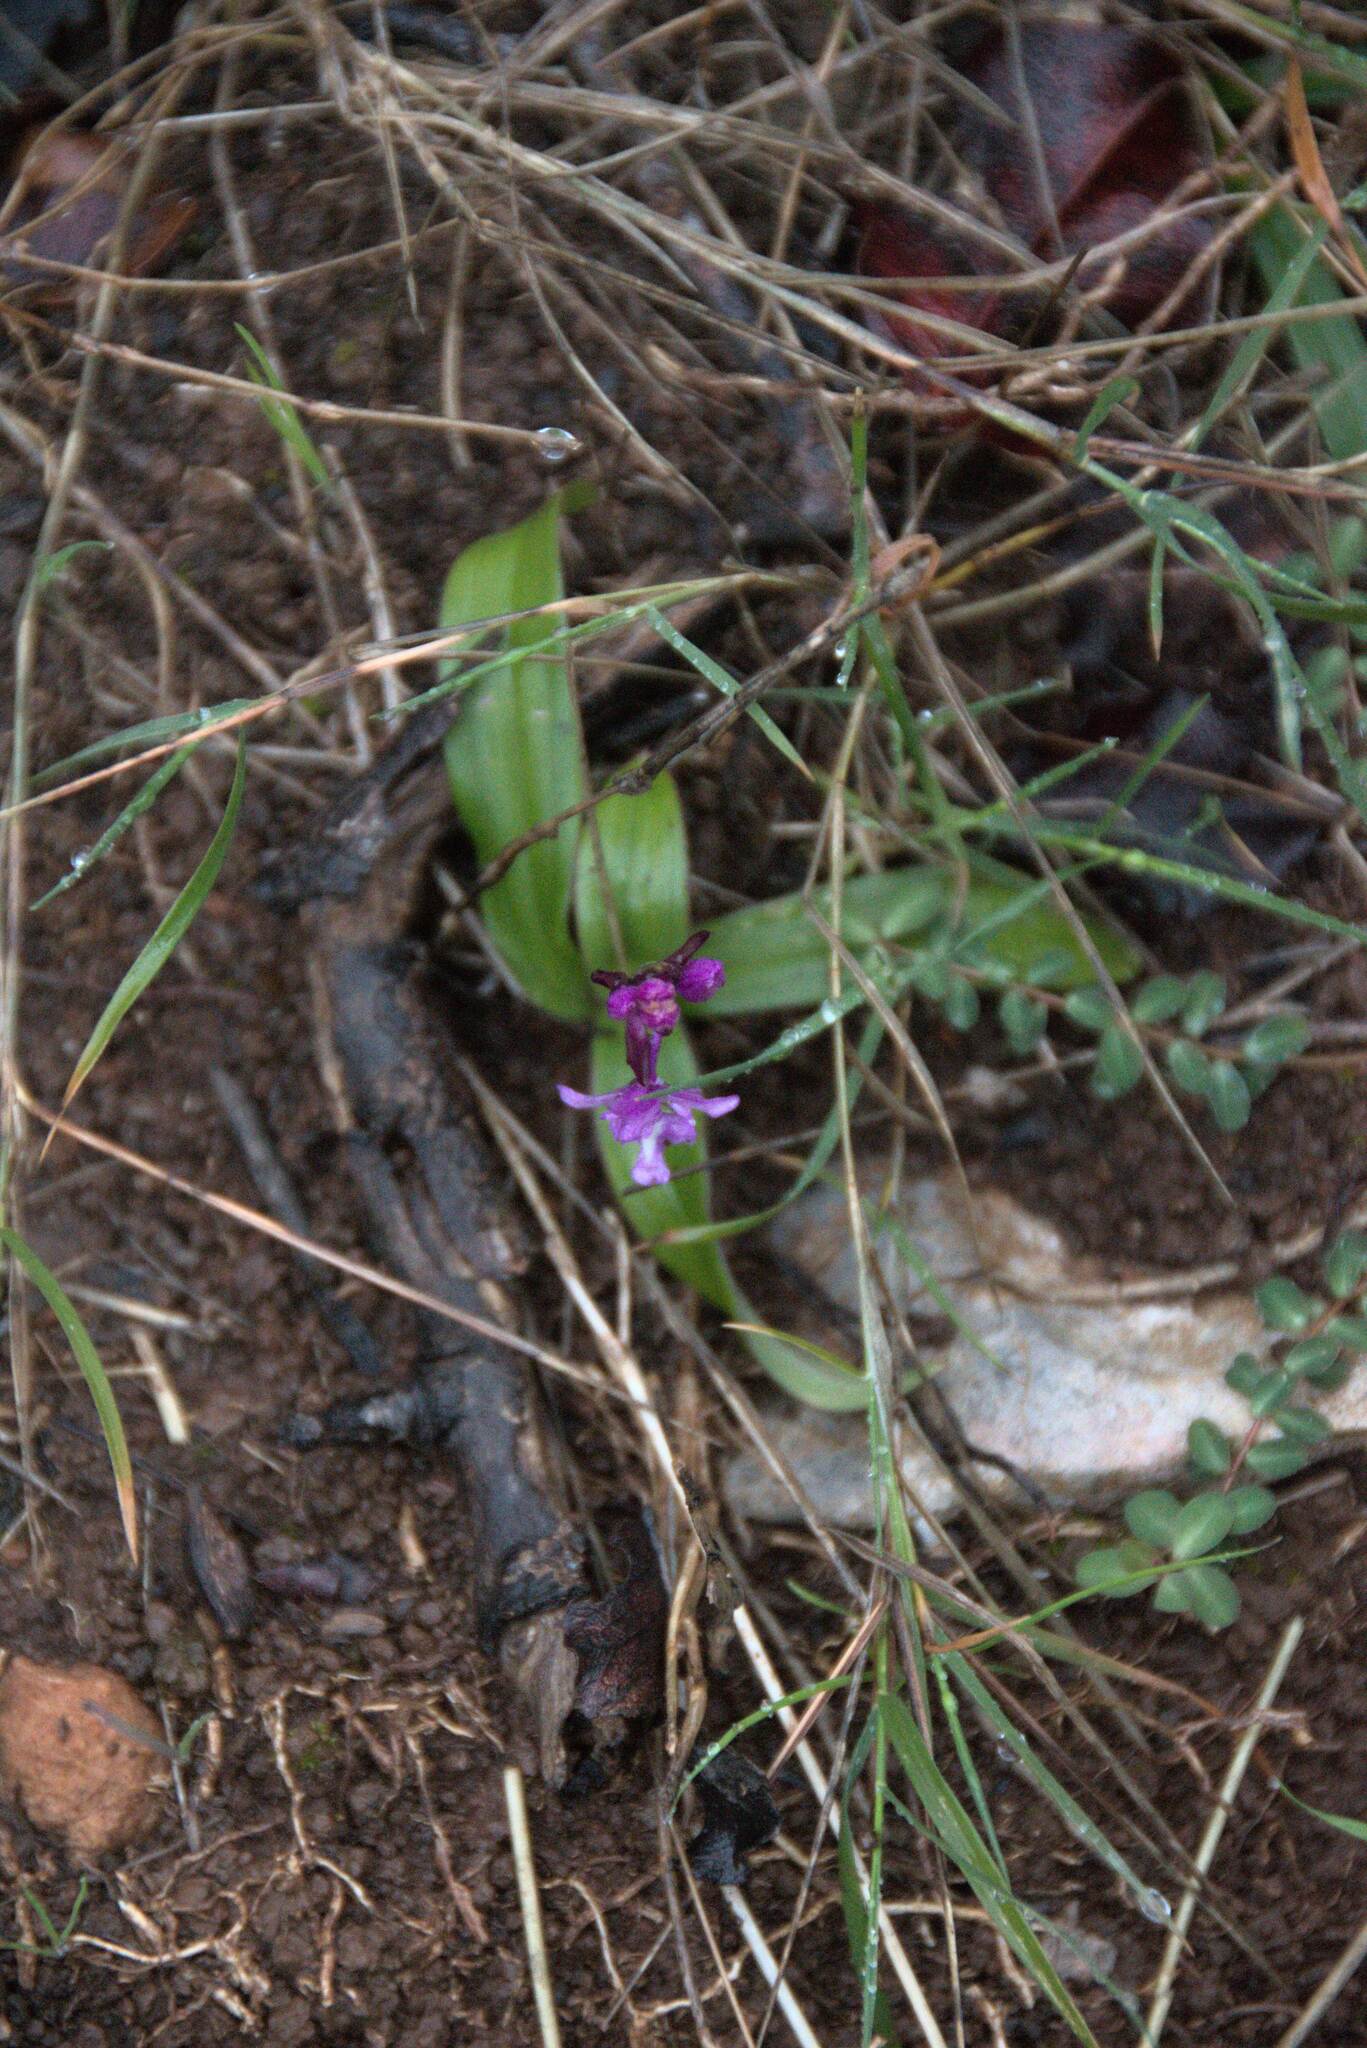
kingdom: Plantae
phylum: Tracheophyta
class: Liliopsida
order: Asparagales
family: Orchidaceae
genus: Orchis
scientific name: Orchis quadripunctata
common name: Four-spotted orchid
